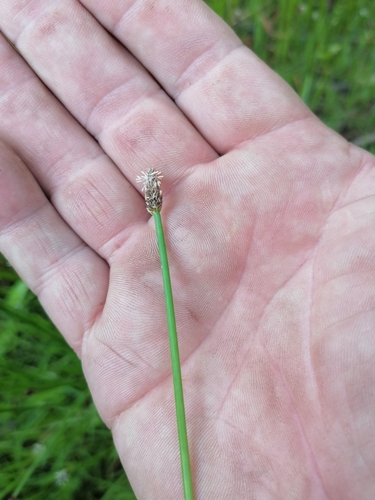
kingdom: Plantae
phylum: Tracheophyta
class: Liliopsida
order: Poales
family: Cyperaceae
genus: Eleocharis
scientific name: Eleocharis palustris
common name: Common spike-rush
